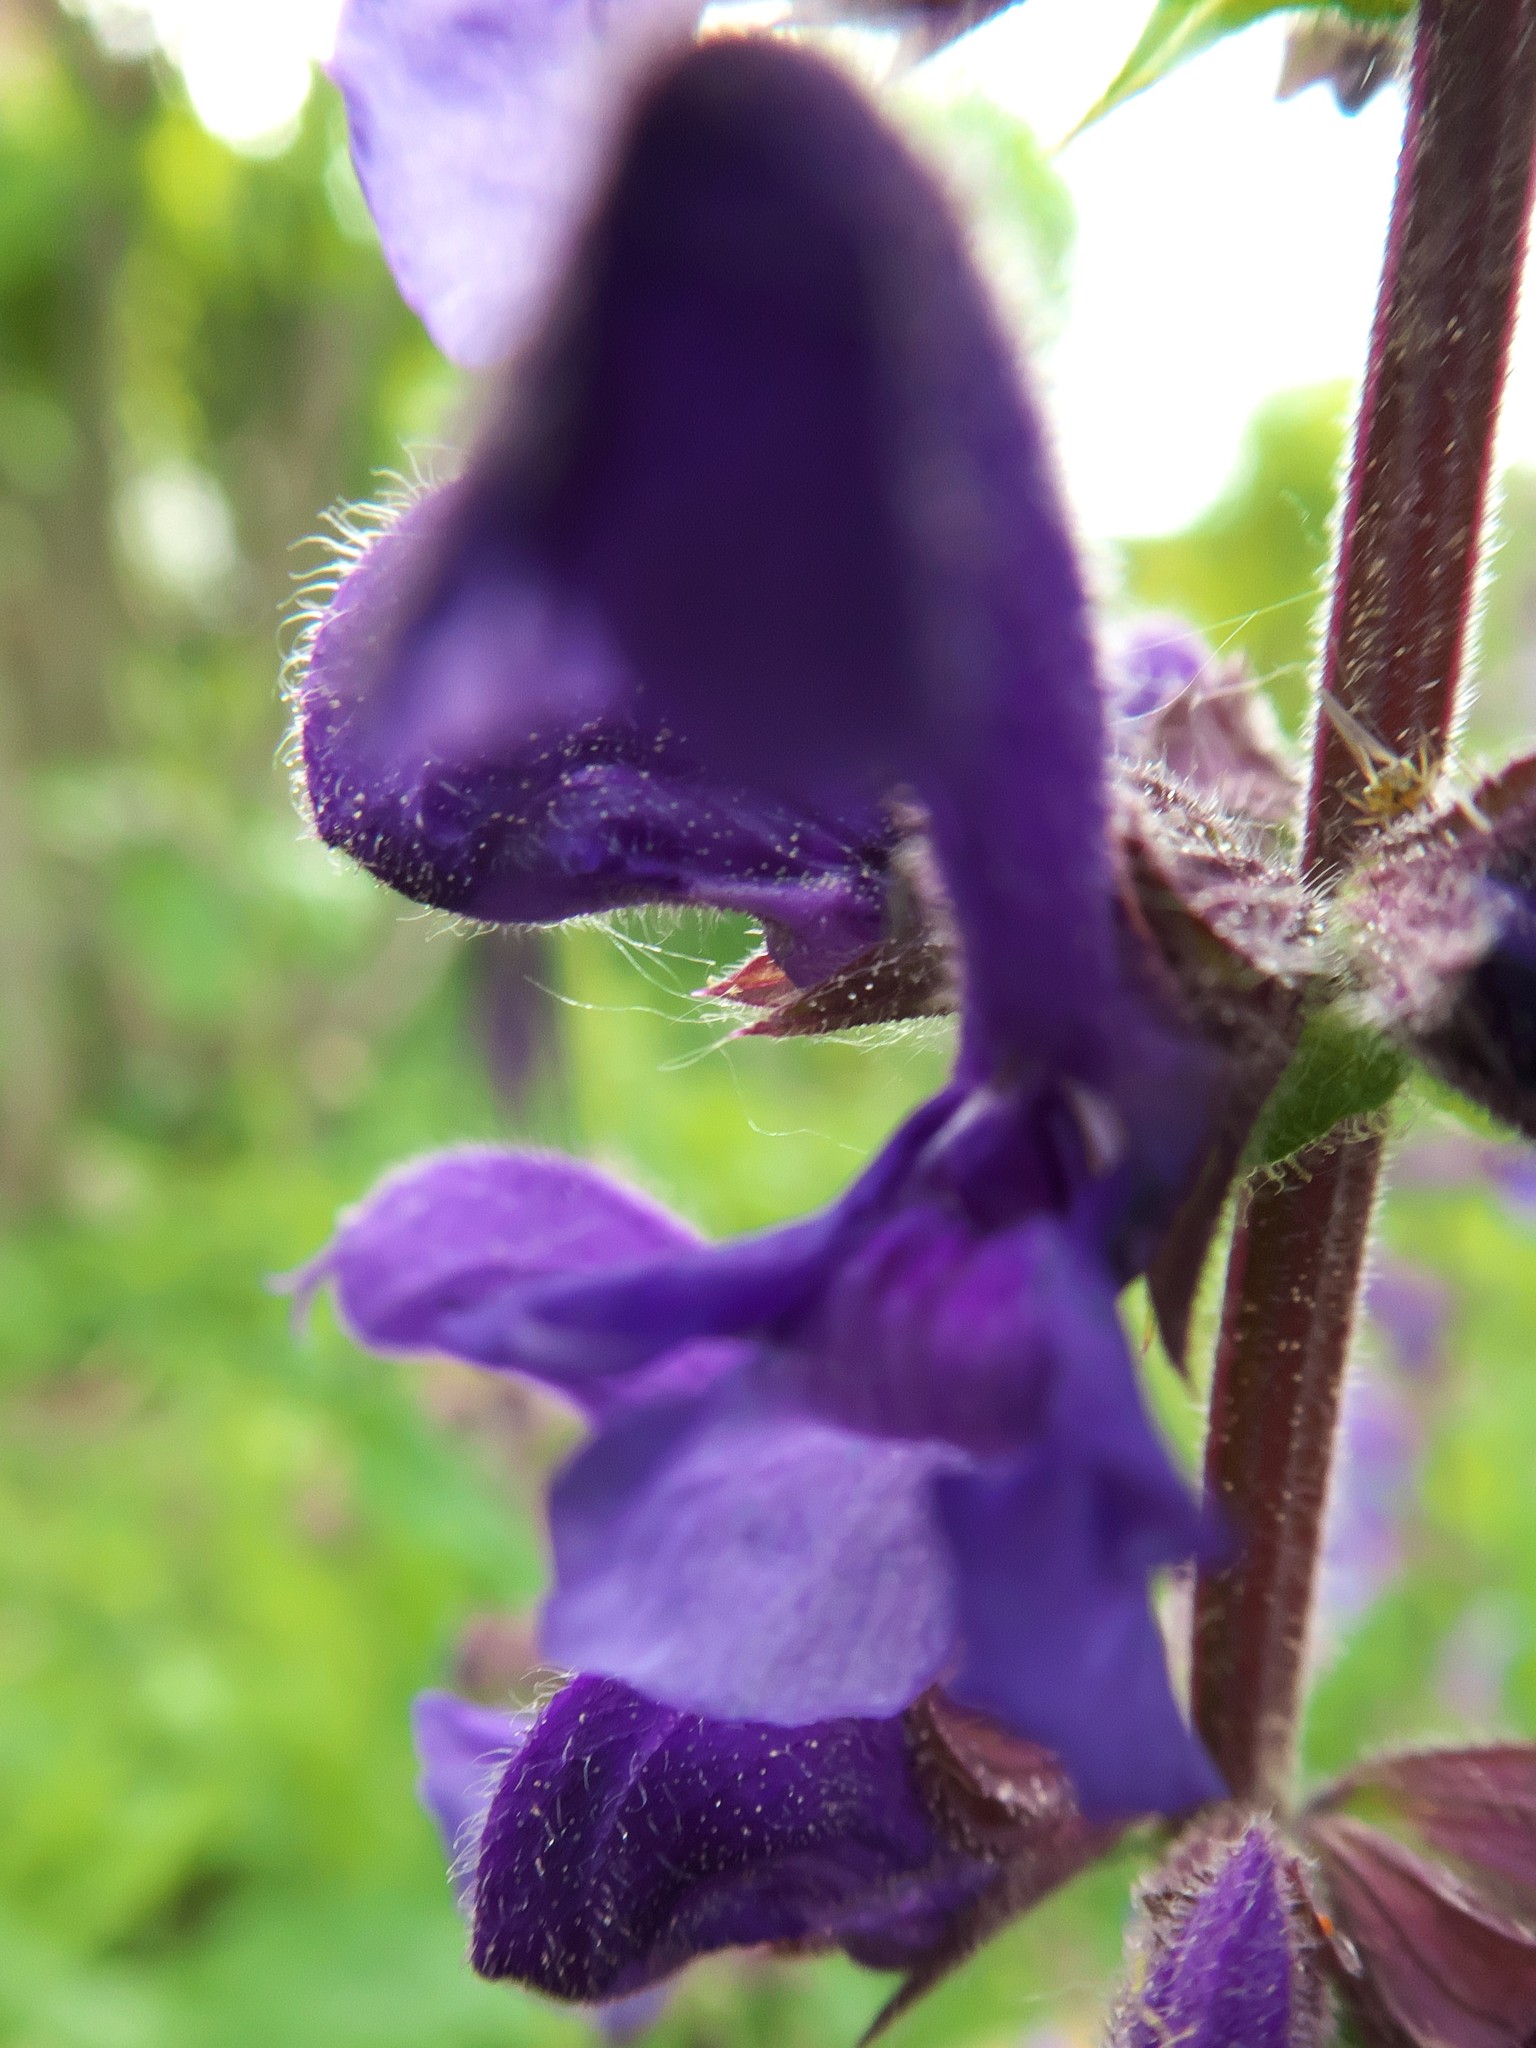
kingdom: Plantae
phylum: Tracheophyta
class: Magnoliopsida
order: Lamiales
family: Lamiaceae
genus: Salvia
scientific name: Salvia pratensis
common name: Meadow sage
